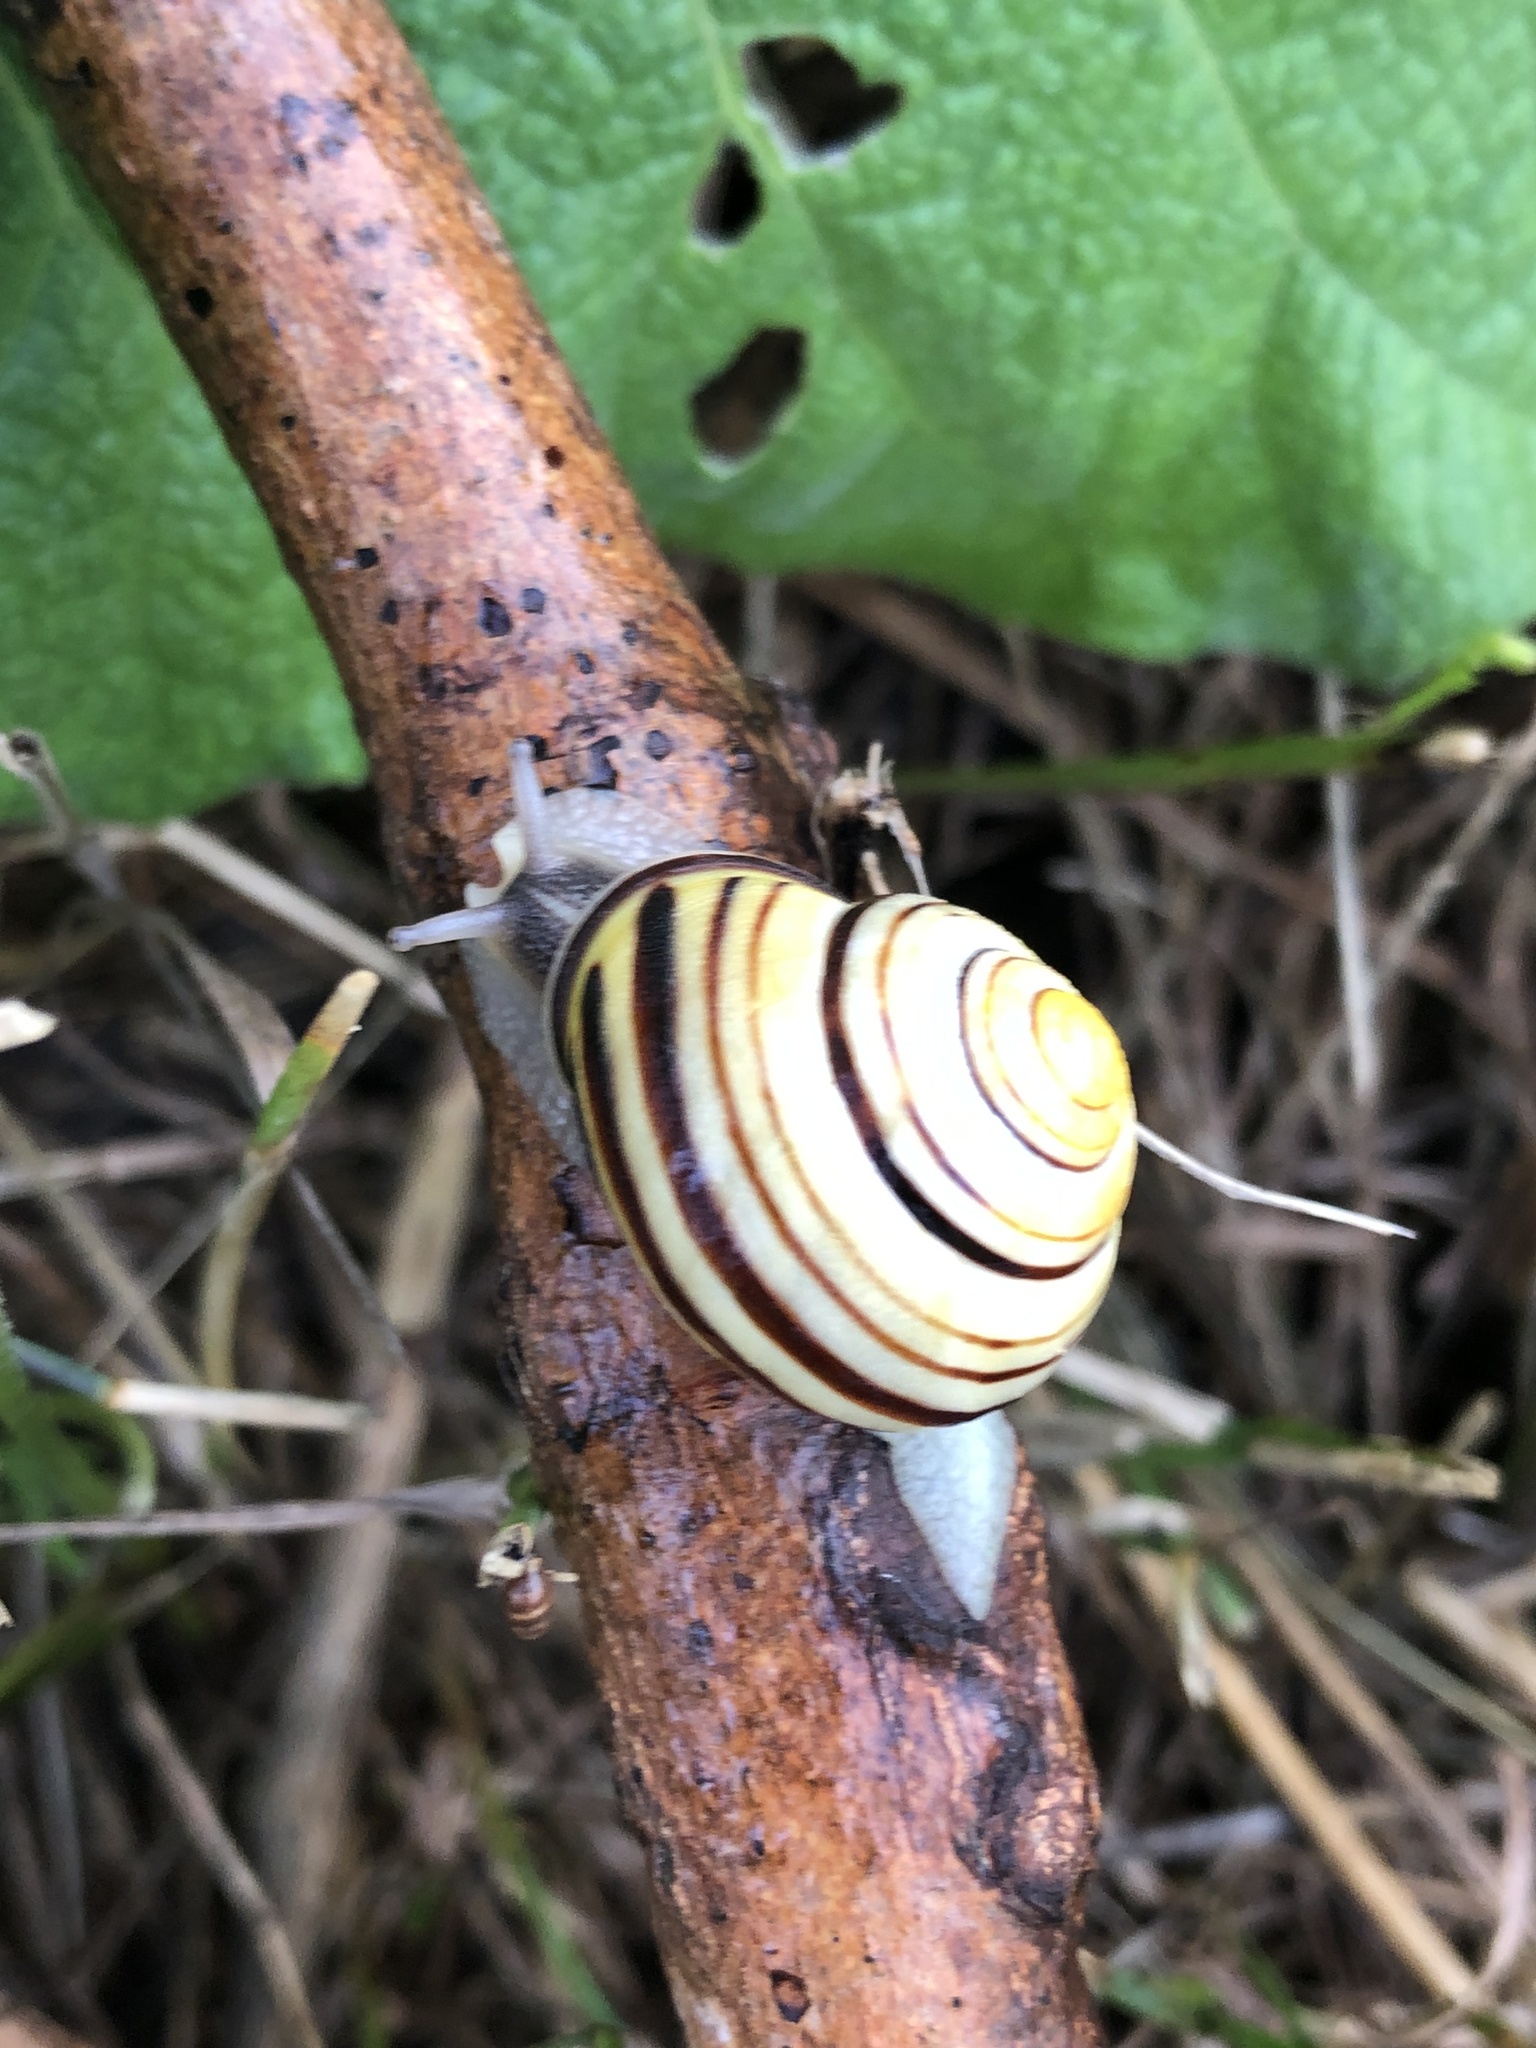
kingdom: Animalia
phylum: Mollusca
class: Gastropoda
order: Stylommatophora
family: Helicidae
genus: Cepaea
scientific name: Cepaea nemoralis
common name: Grovesnail
